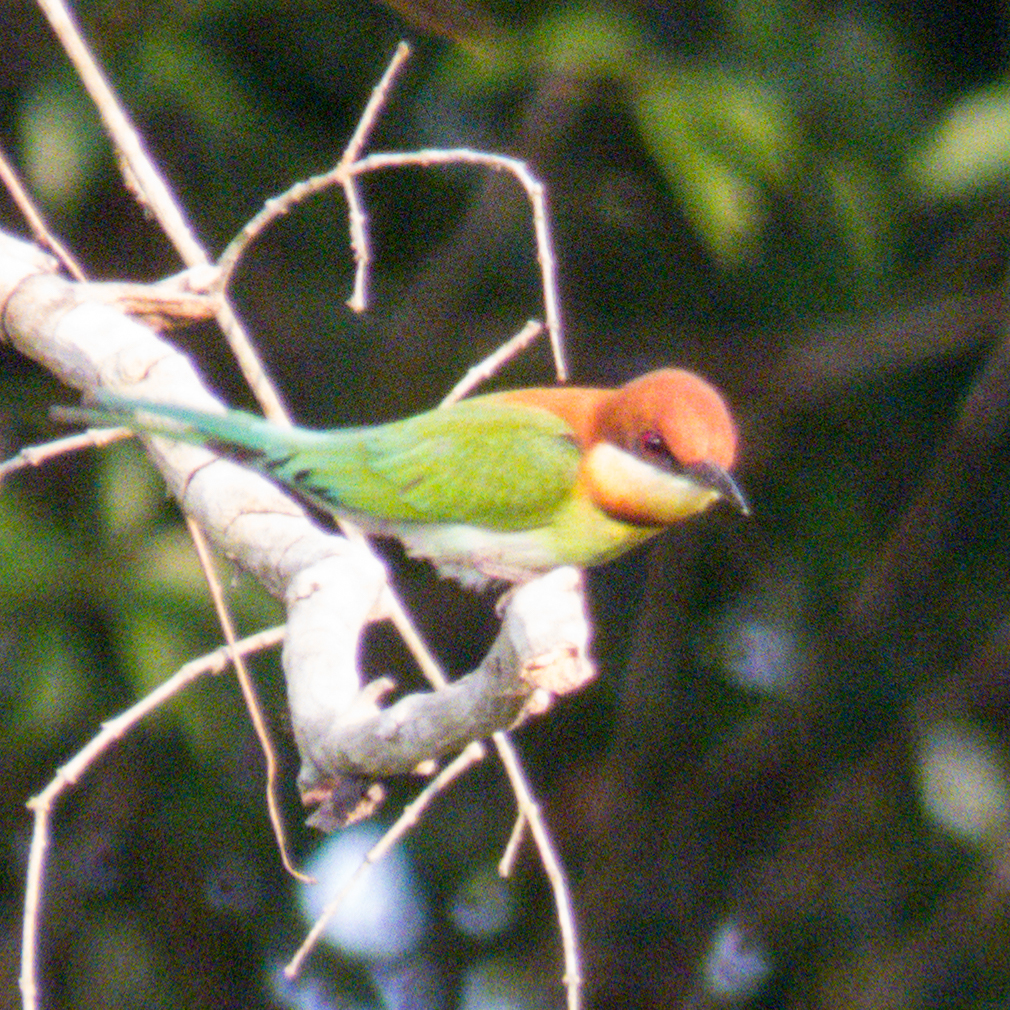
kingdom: Animalia
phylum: Chordata
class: Aves
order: Coraciiformes
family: Meropidae
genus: Merops
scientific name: Merops leschenaulti
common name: Chestnut-headed bee-eater
